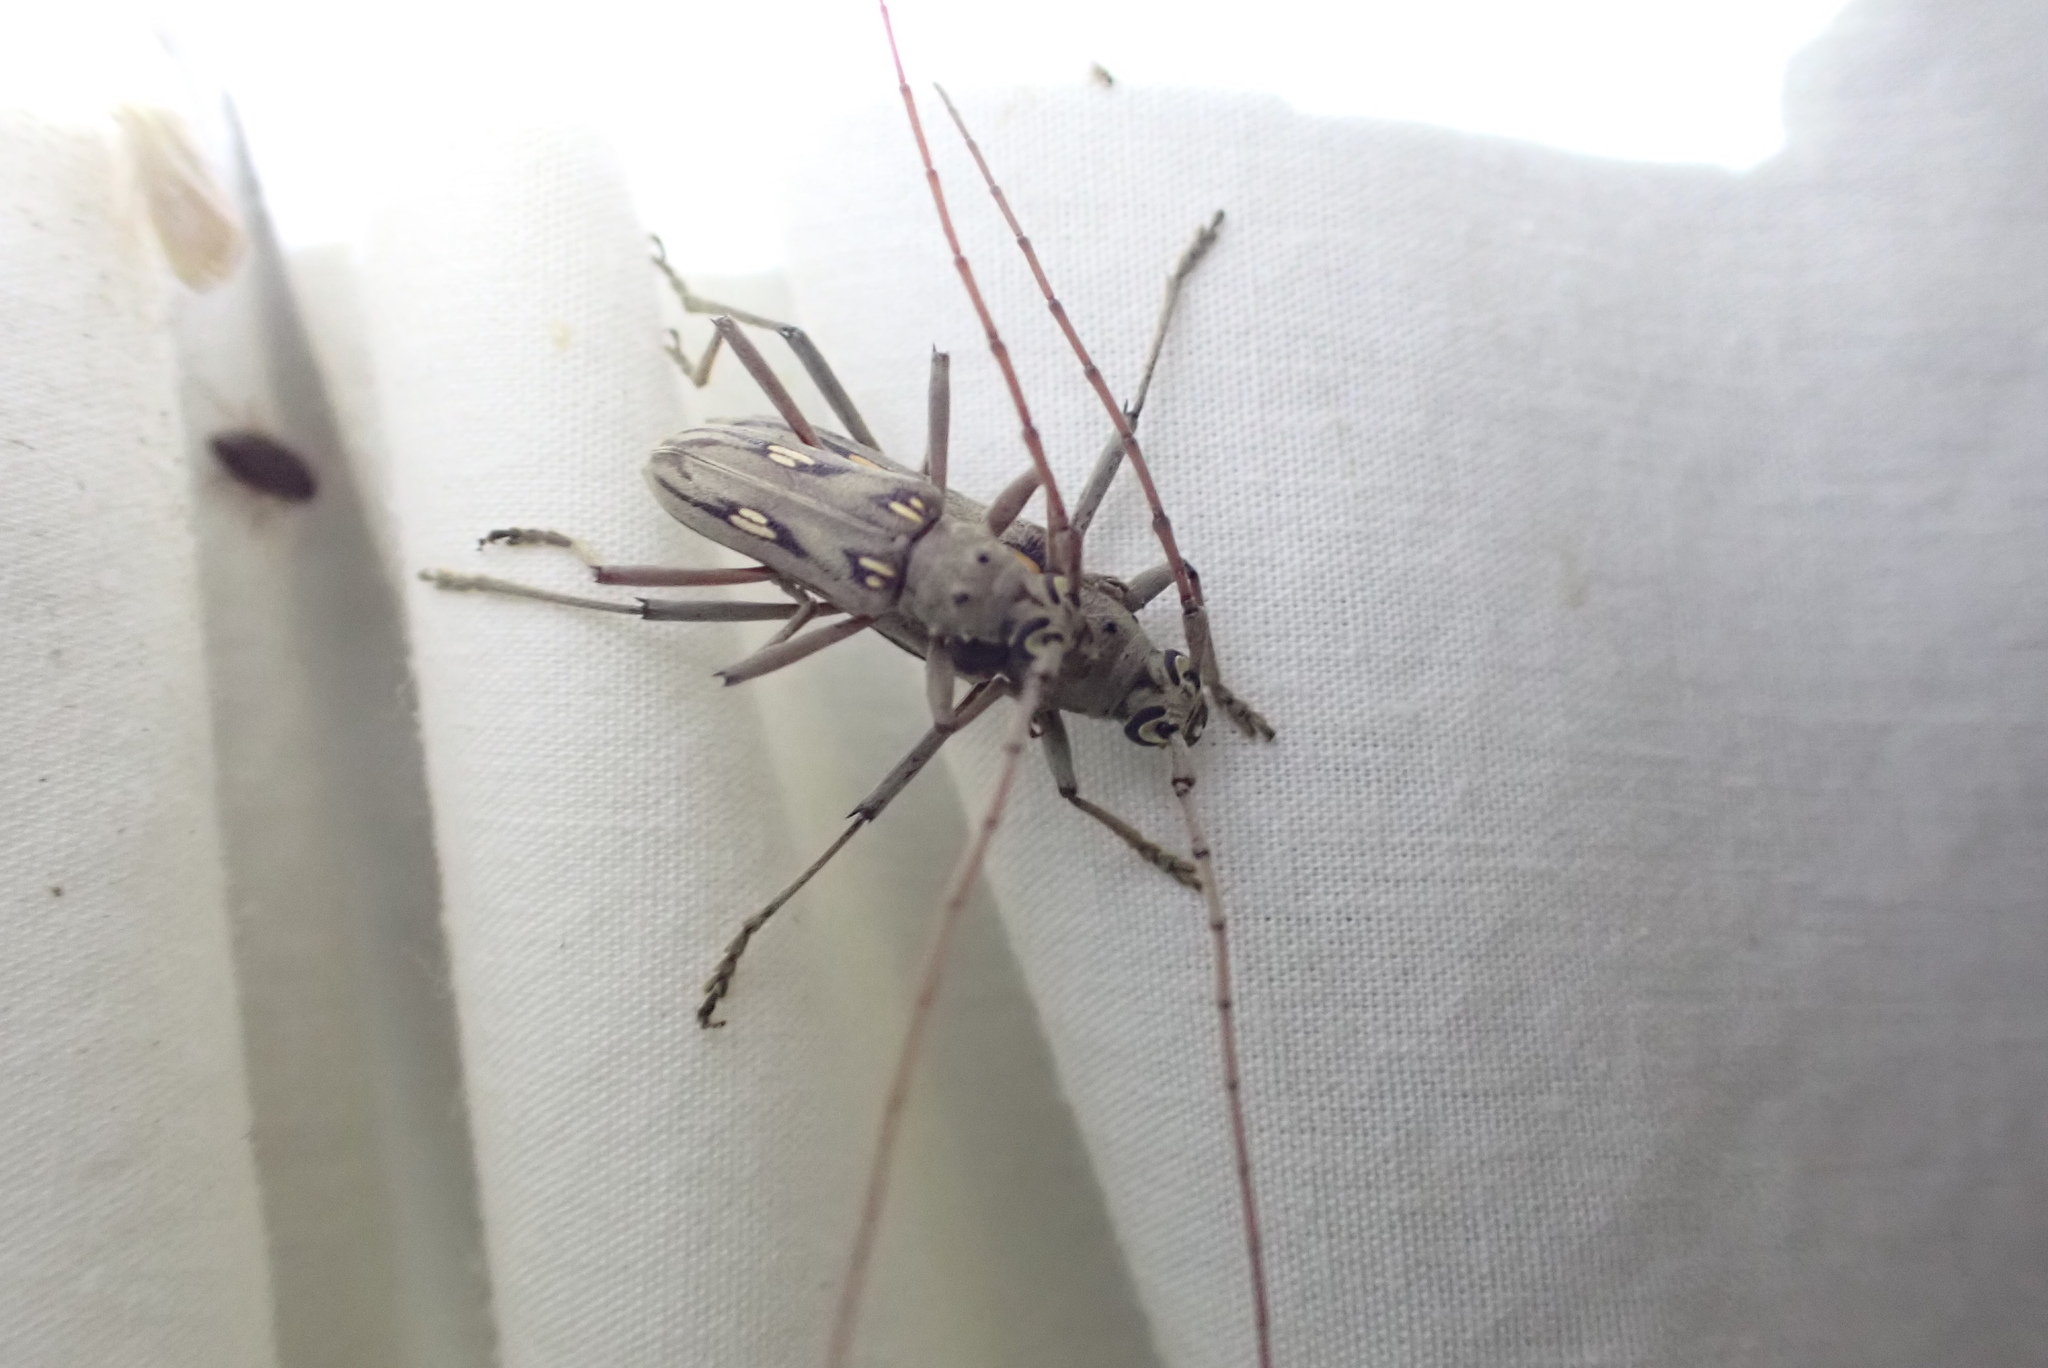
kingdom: Animalia
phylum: Arthropoda
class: Insecta
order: Coleoptera
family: Cerambycidae
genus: Eburia
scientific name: Eburia stigma
